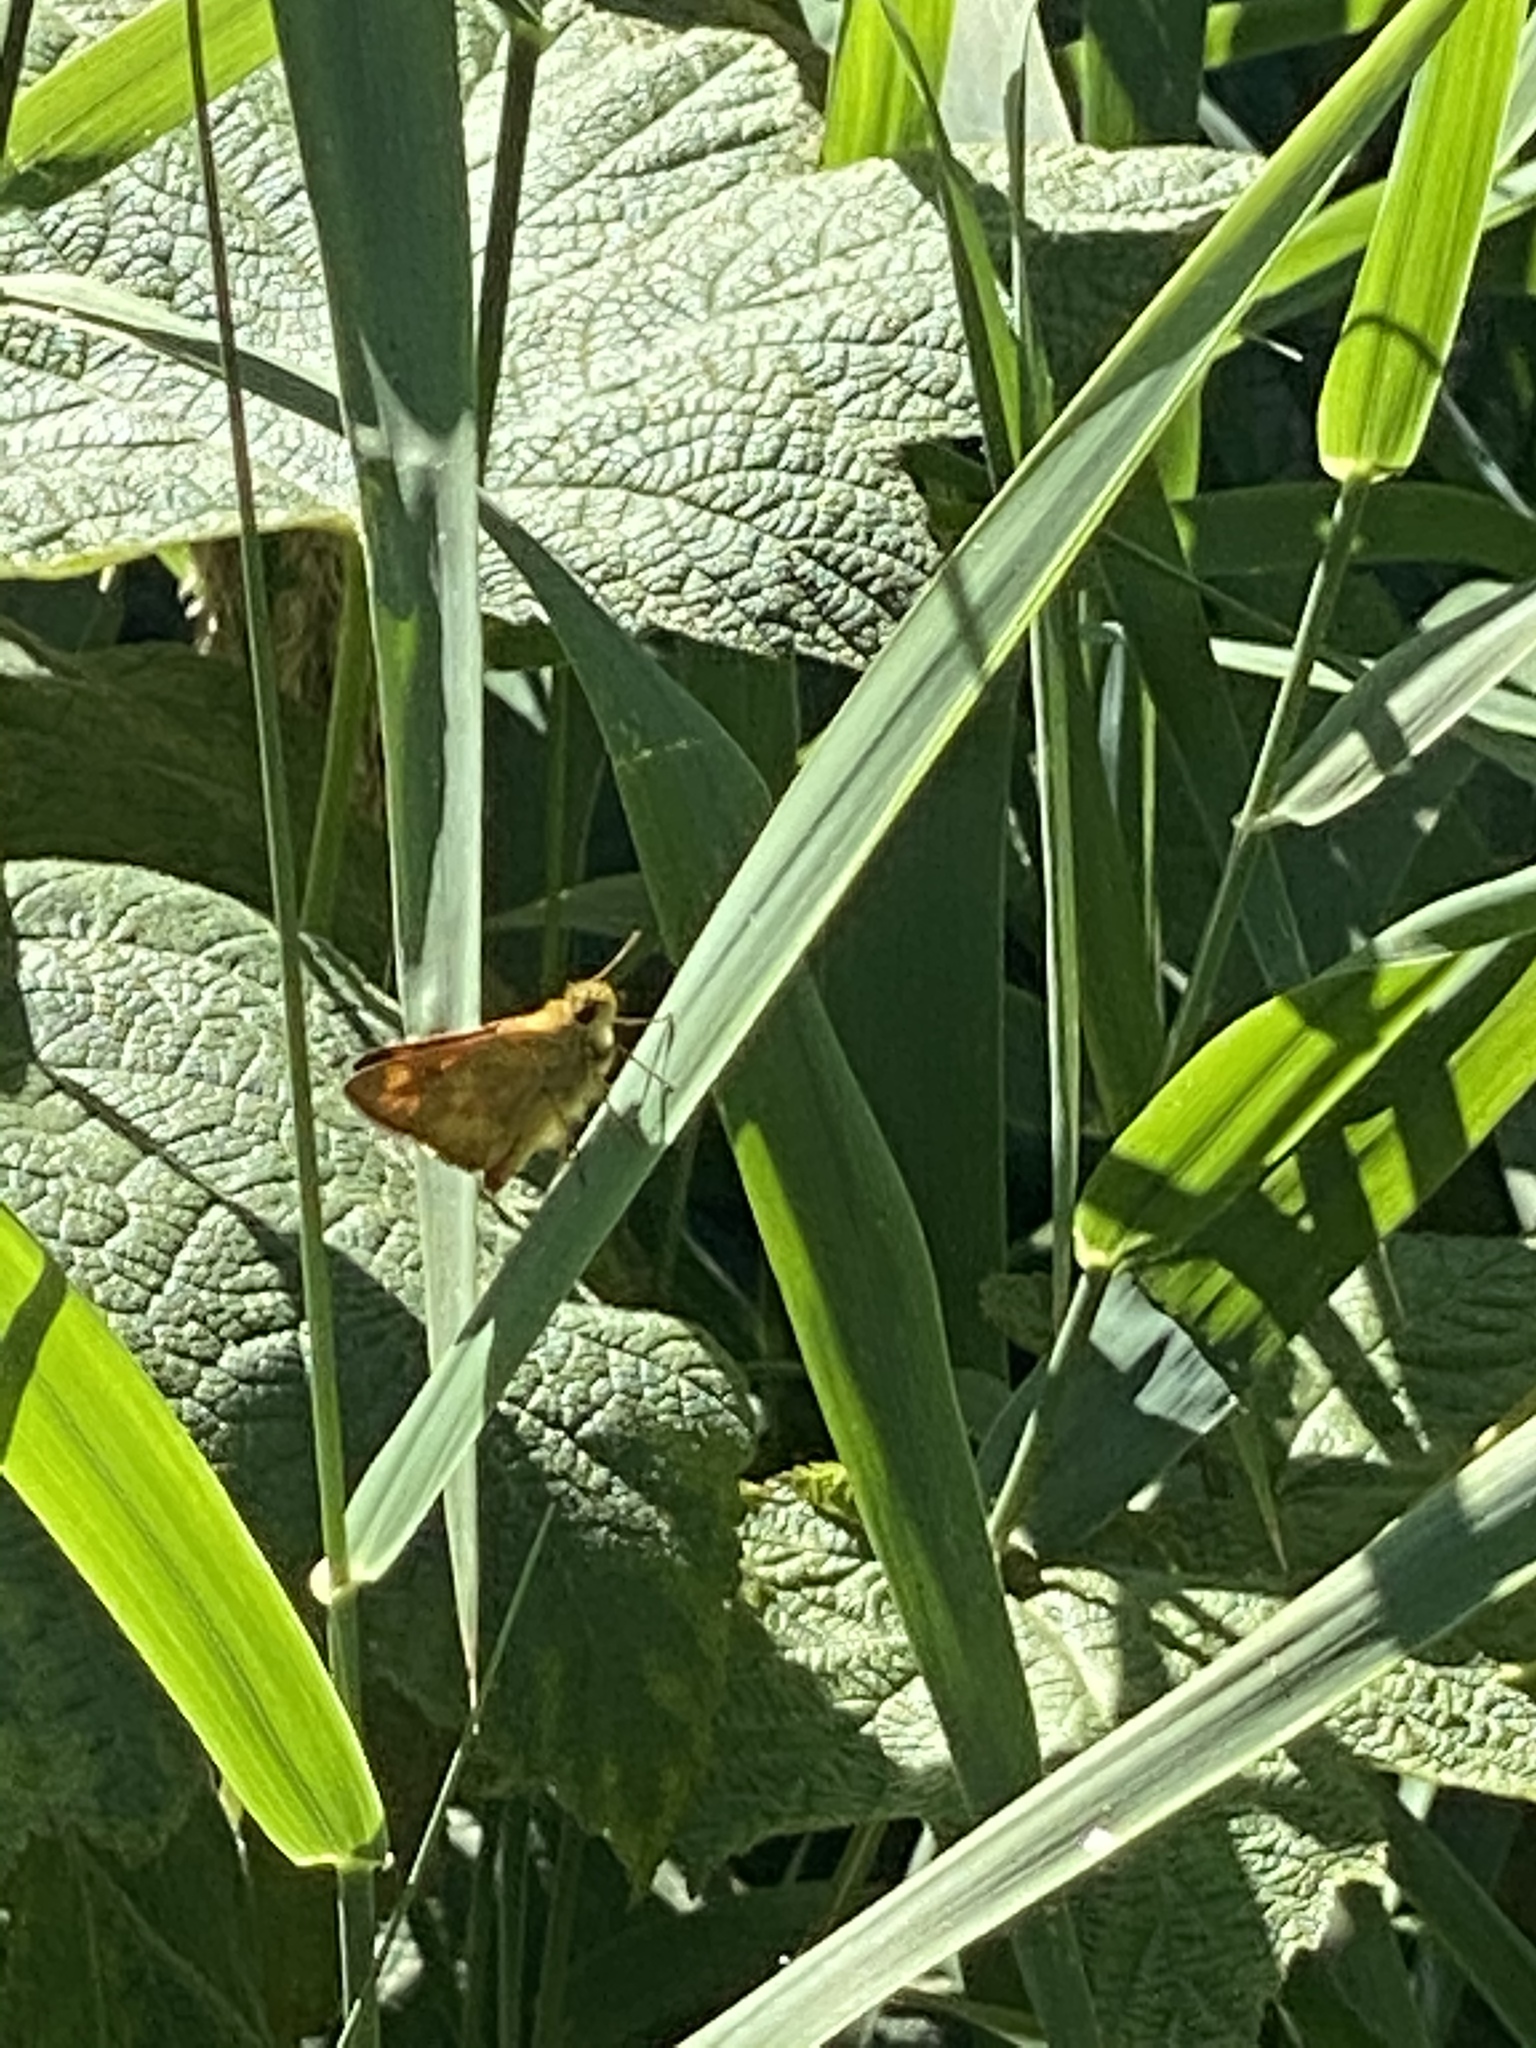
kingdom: Animalia
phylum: Arthropoda
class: Insecta
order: Lepidoptera
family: Hesperiidae
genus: Ochlodes
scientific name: Ochlodes sylvanoides
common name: Woodland skipper
